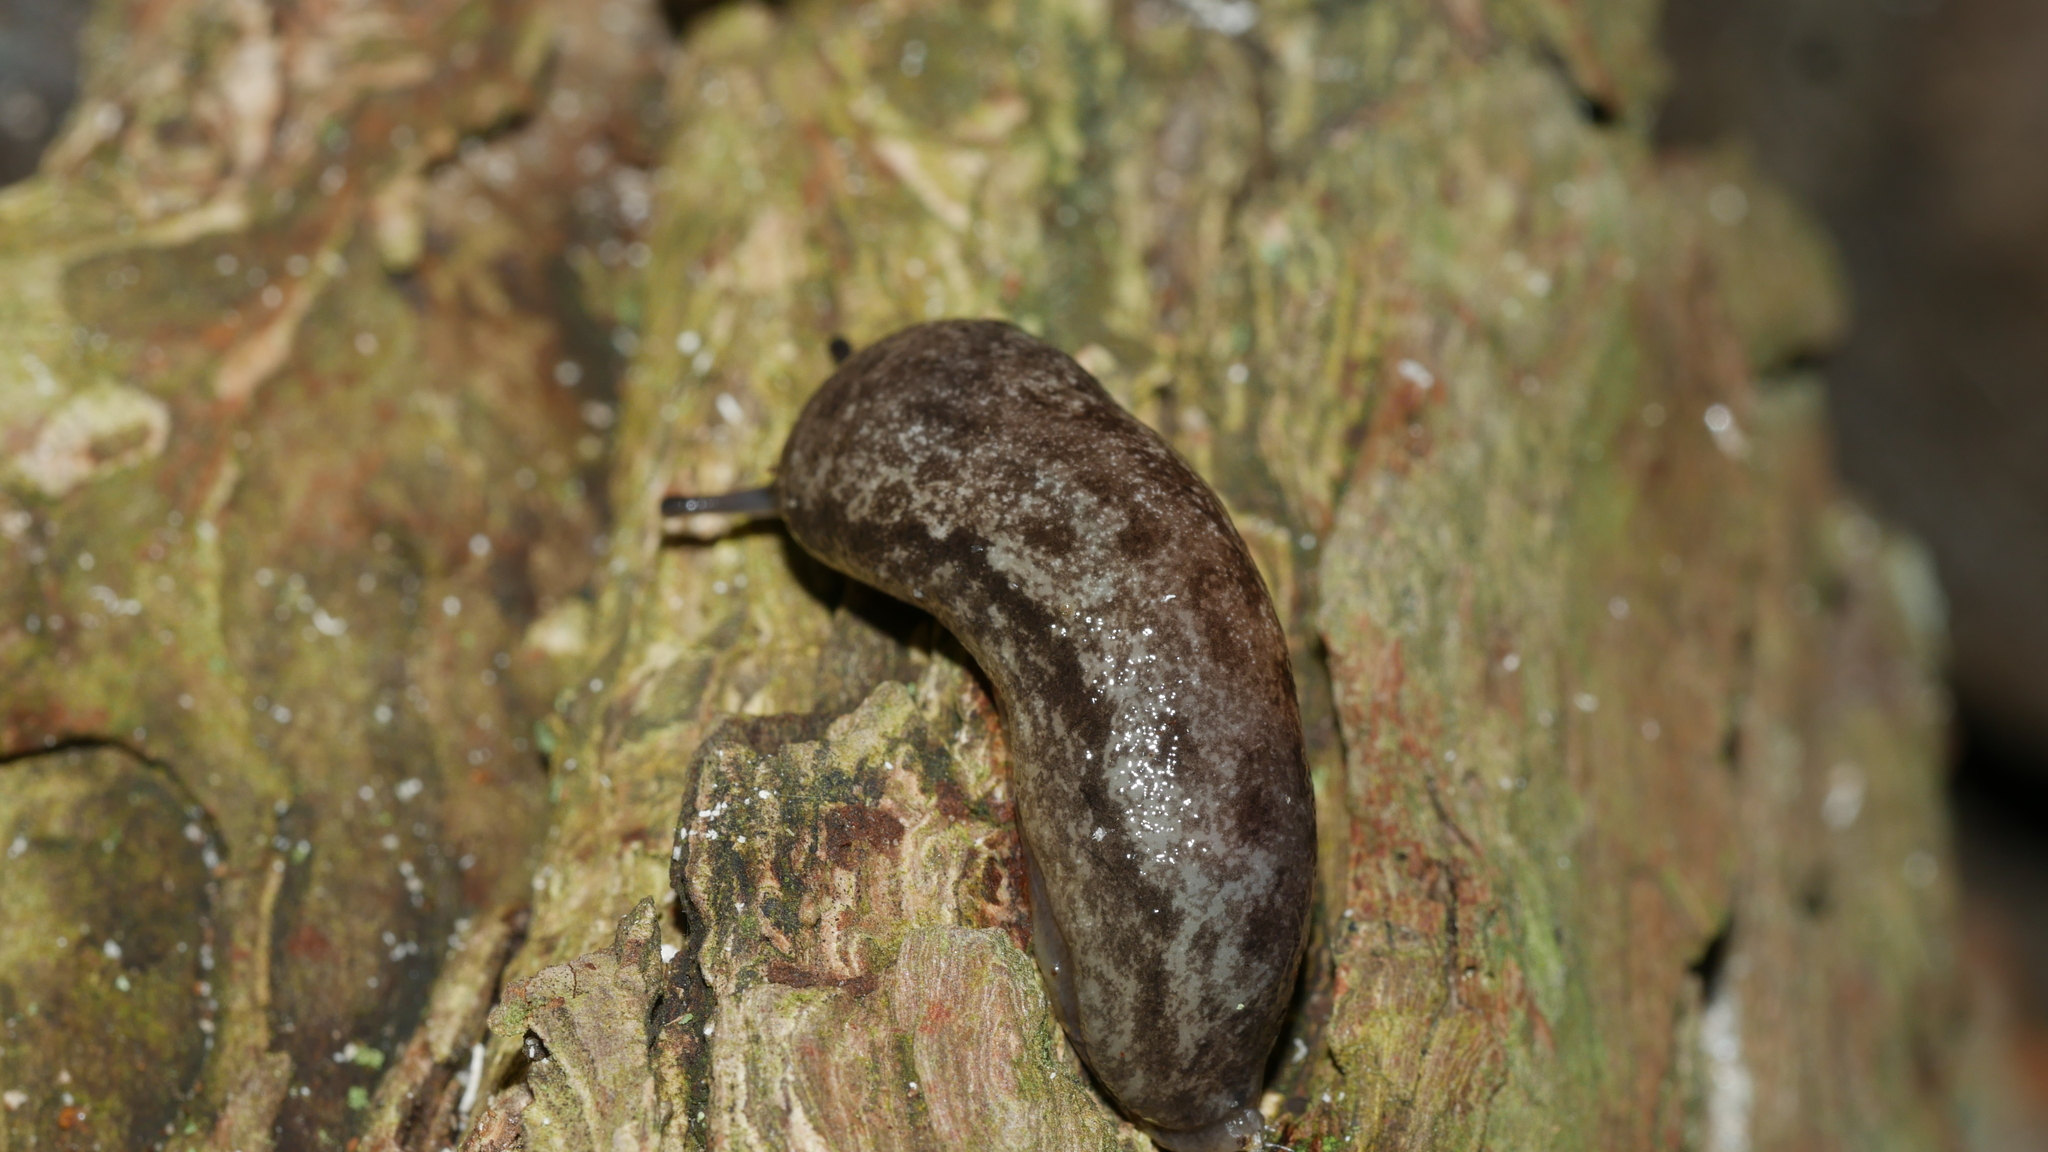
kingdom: Animalia
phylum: Mollusca
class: Gastropoda
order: Stylommatophora
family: Philomycidae
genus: Megapallifera
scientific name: Megapallifera mutabilis
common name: Changeable mantleslug
